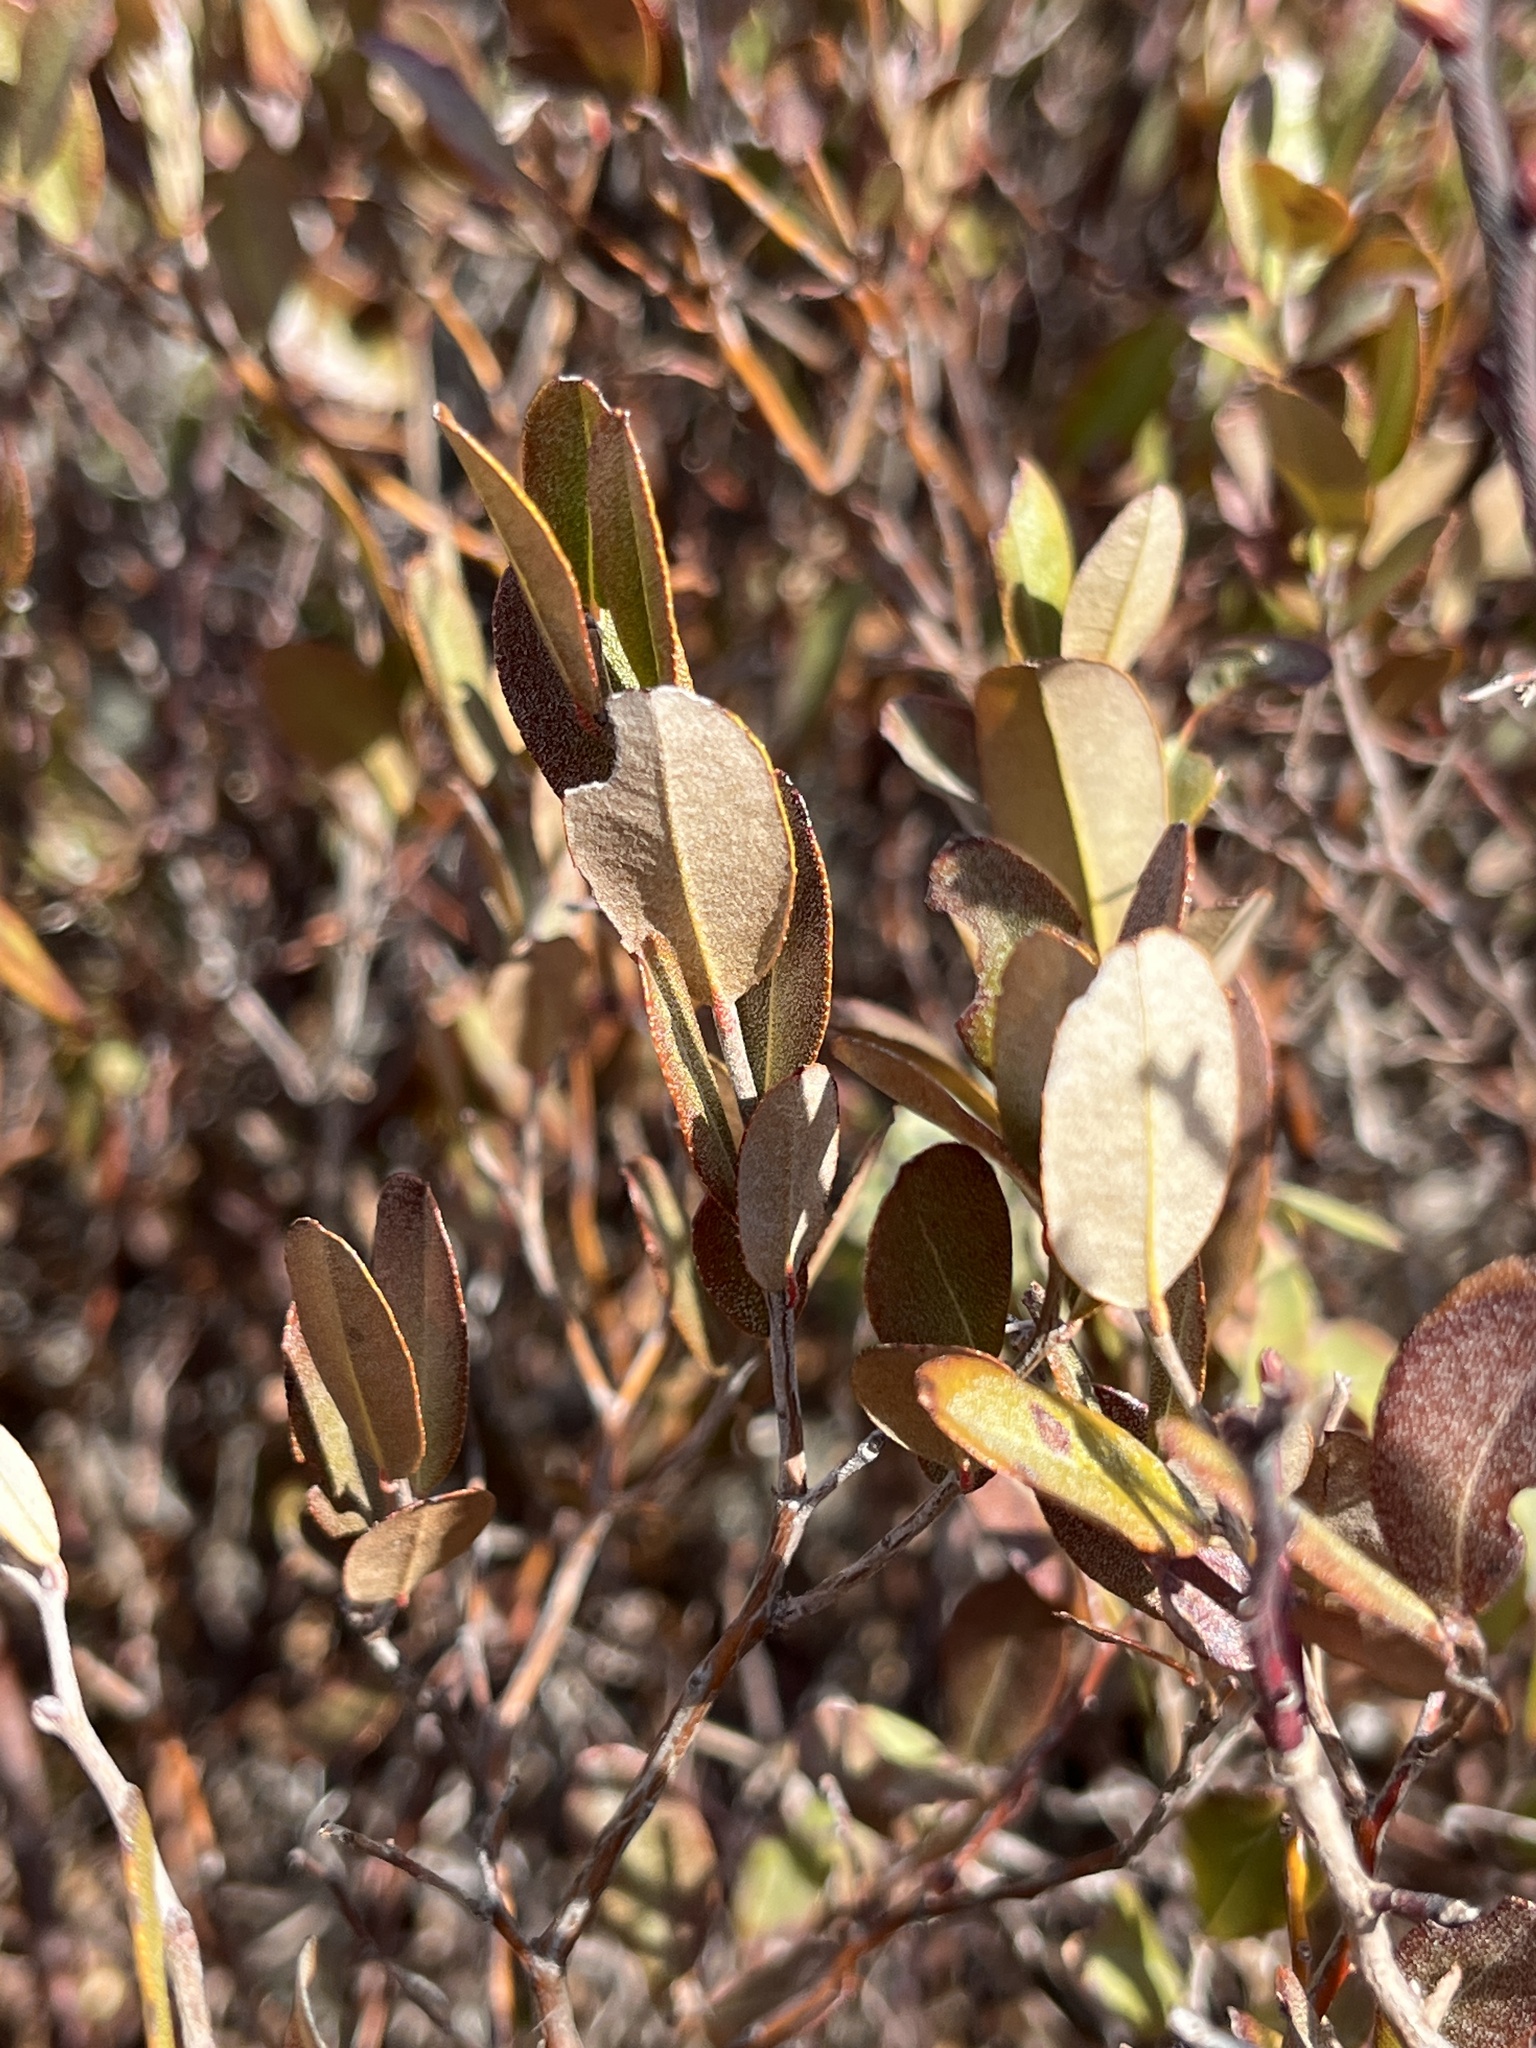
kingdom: Plantae
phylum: Tracheophyta
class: Magnoliopsida
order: Ericales
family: Ericaceae
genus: Chamaedaphne
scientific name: Chamaedaphne calyculata
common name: Leatherleaf
